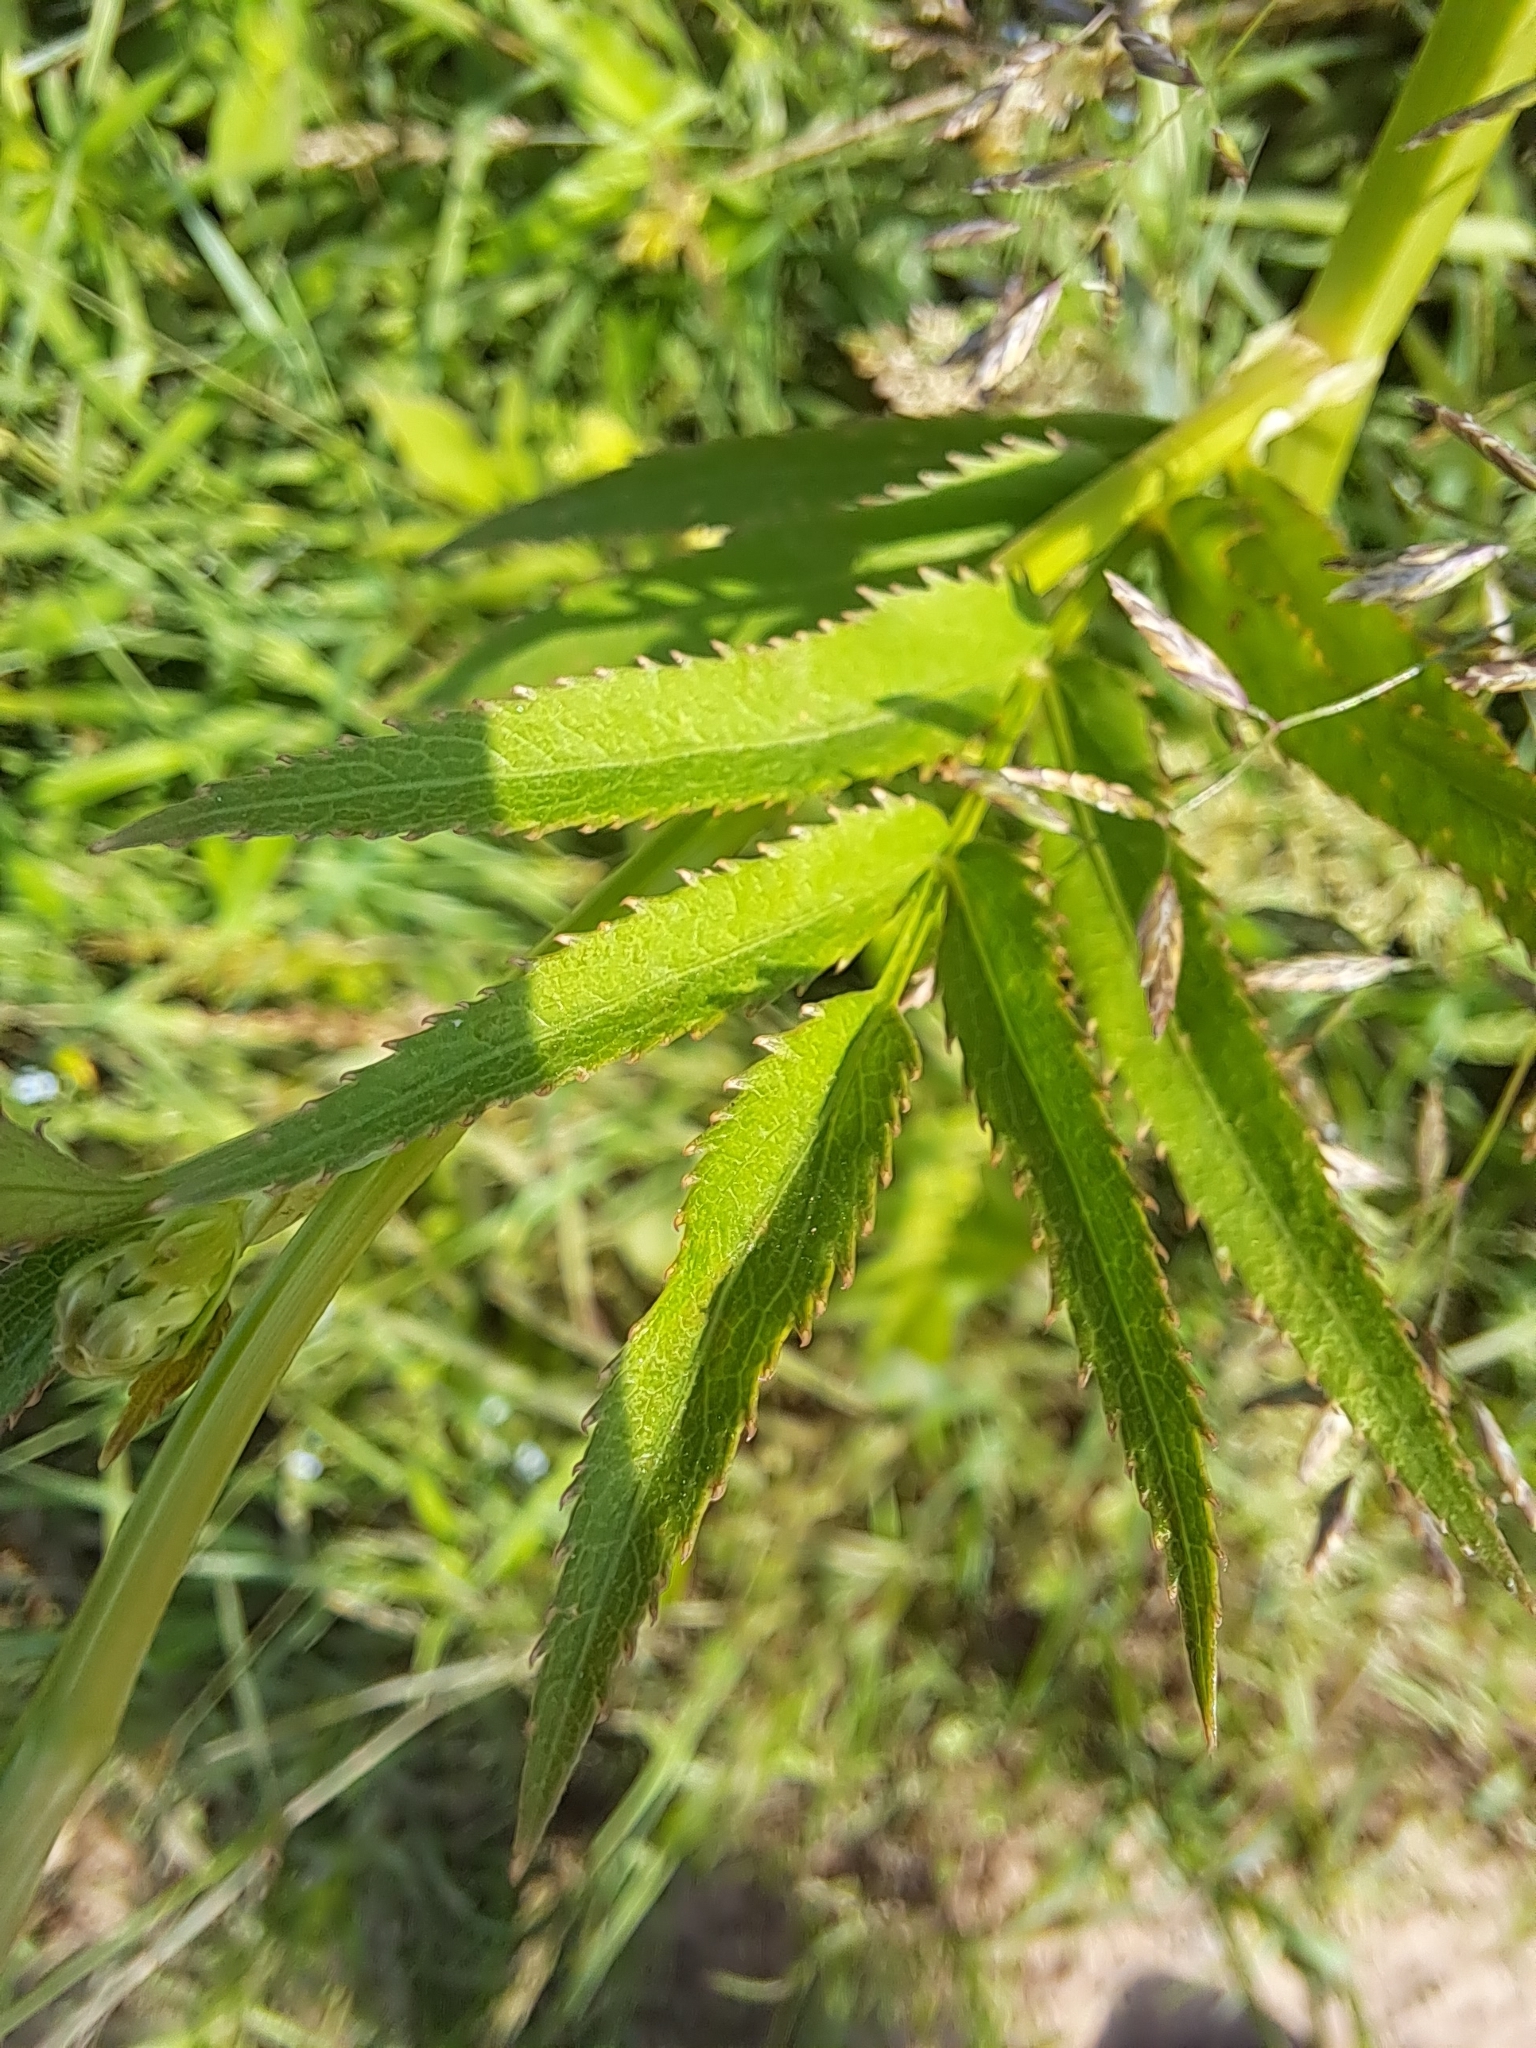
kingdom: Plantae
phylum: Tracheophyta
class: Magnoliopsida
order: Apiales
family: Apiaceae
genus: Sium
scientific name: Sium suave
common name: Hemlock water-parsnip
